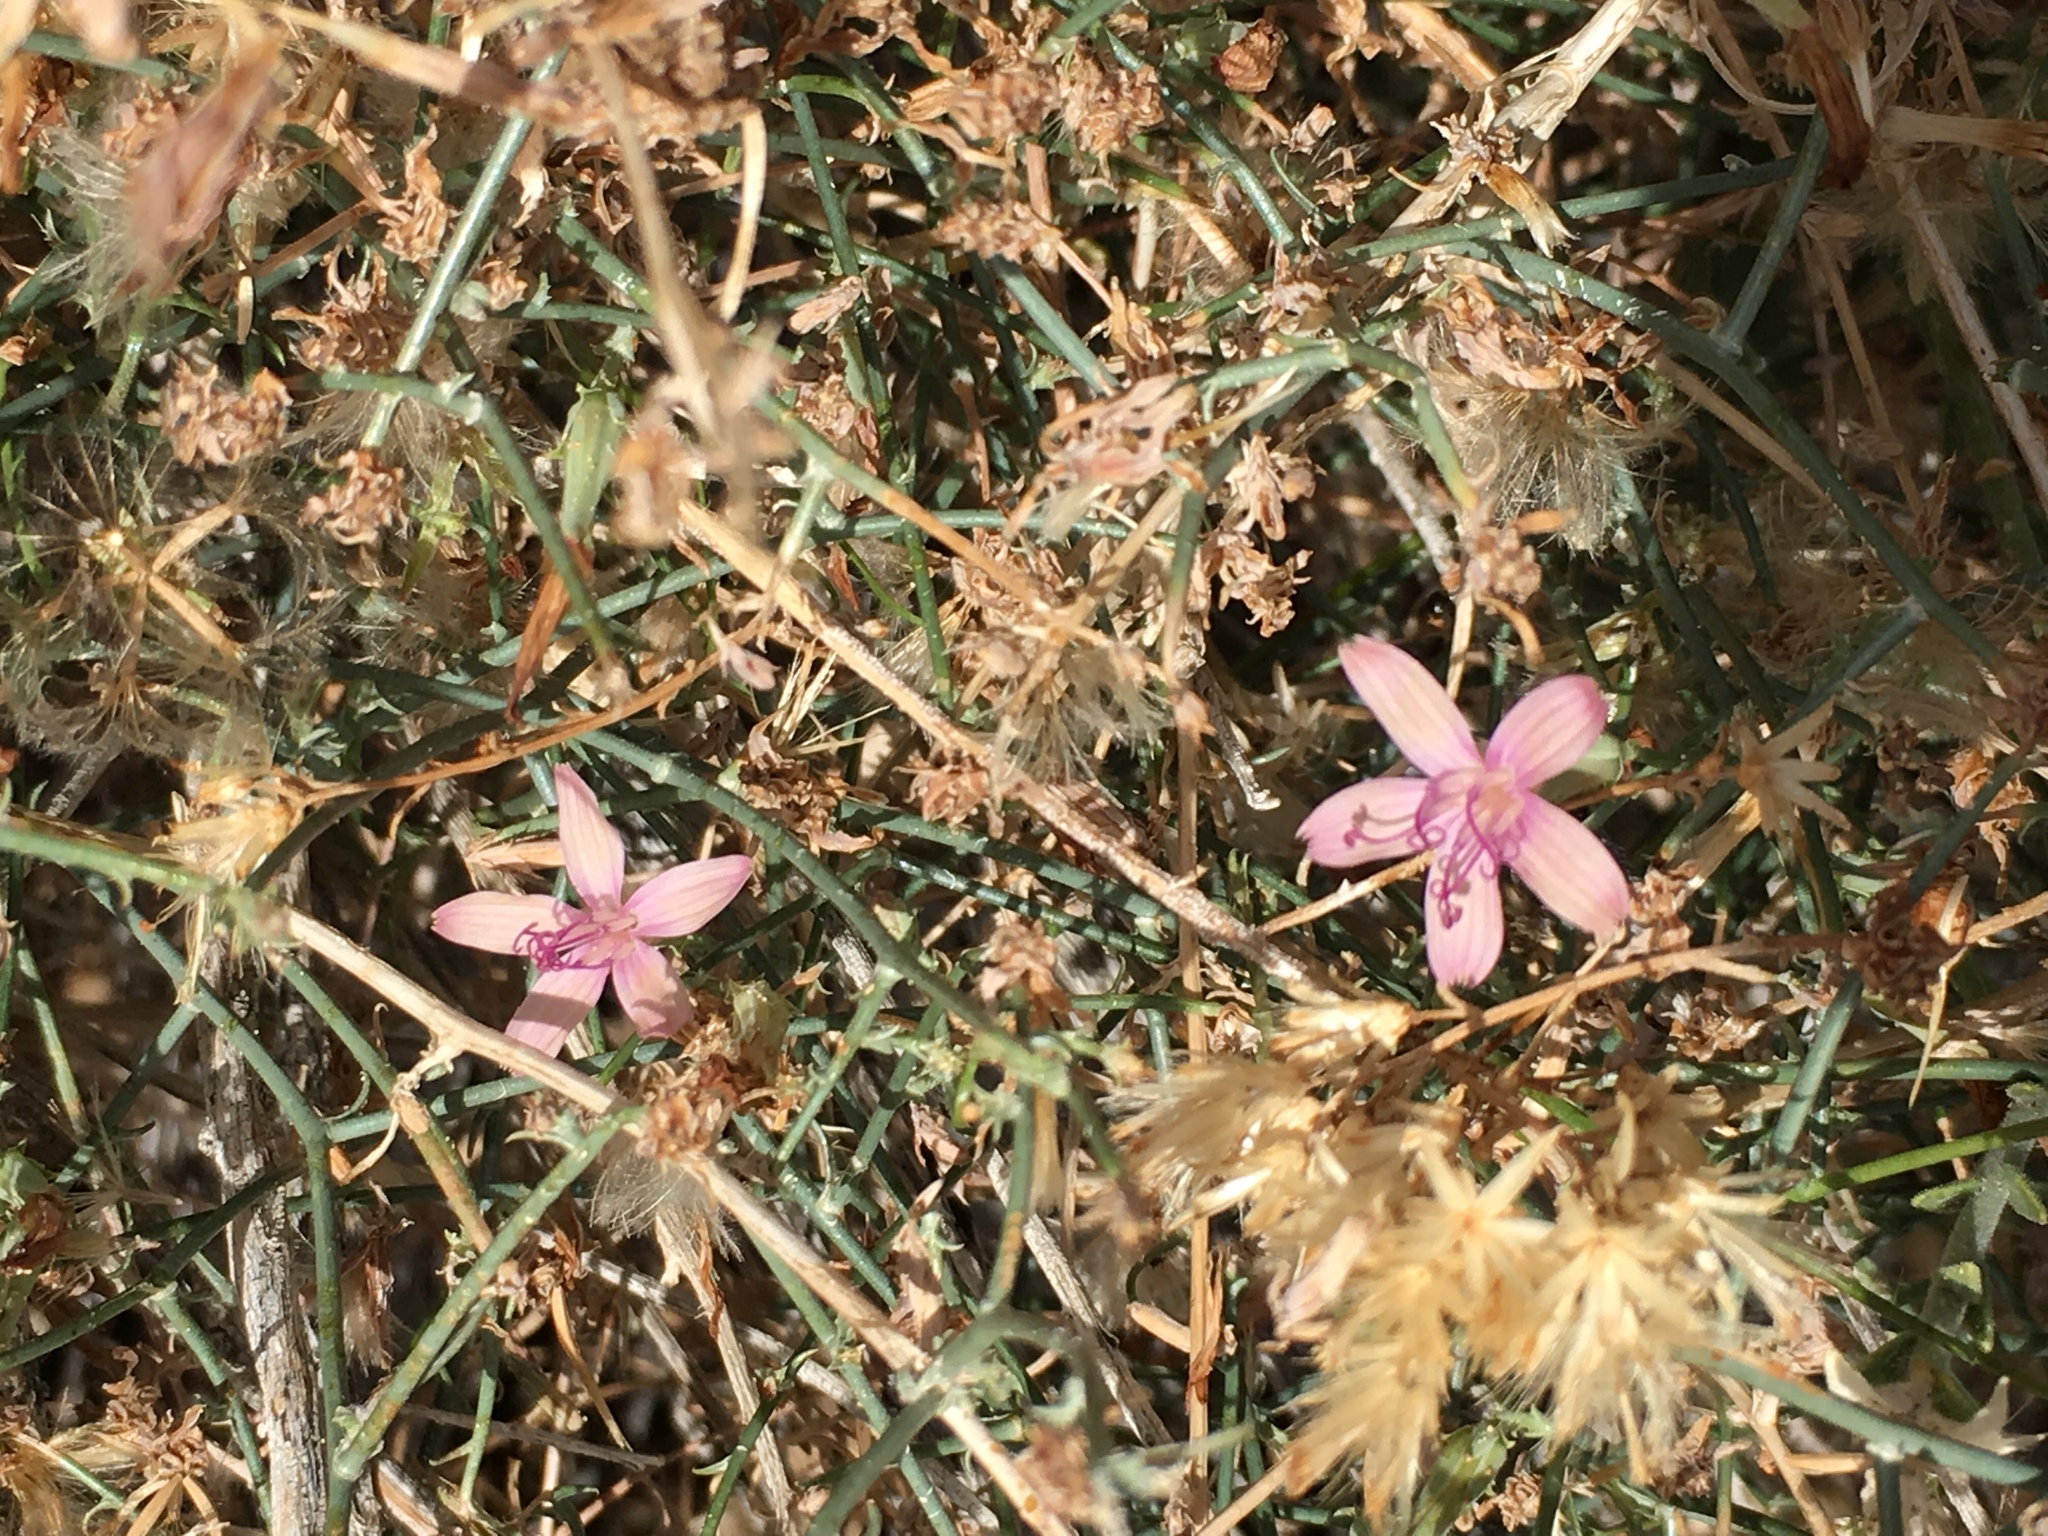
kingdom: Plantae
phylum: Tracheophyta
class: Magnoliopsida
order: Asterales
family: Asteraceae
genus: Stephanomeria
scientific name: Stephanomeria pauciflora
